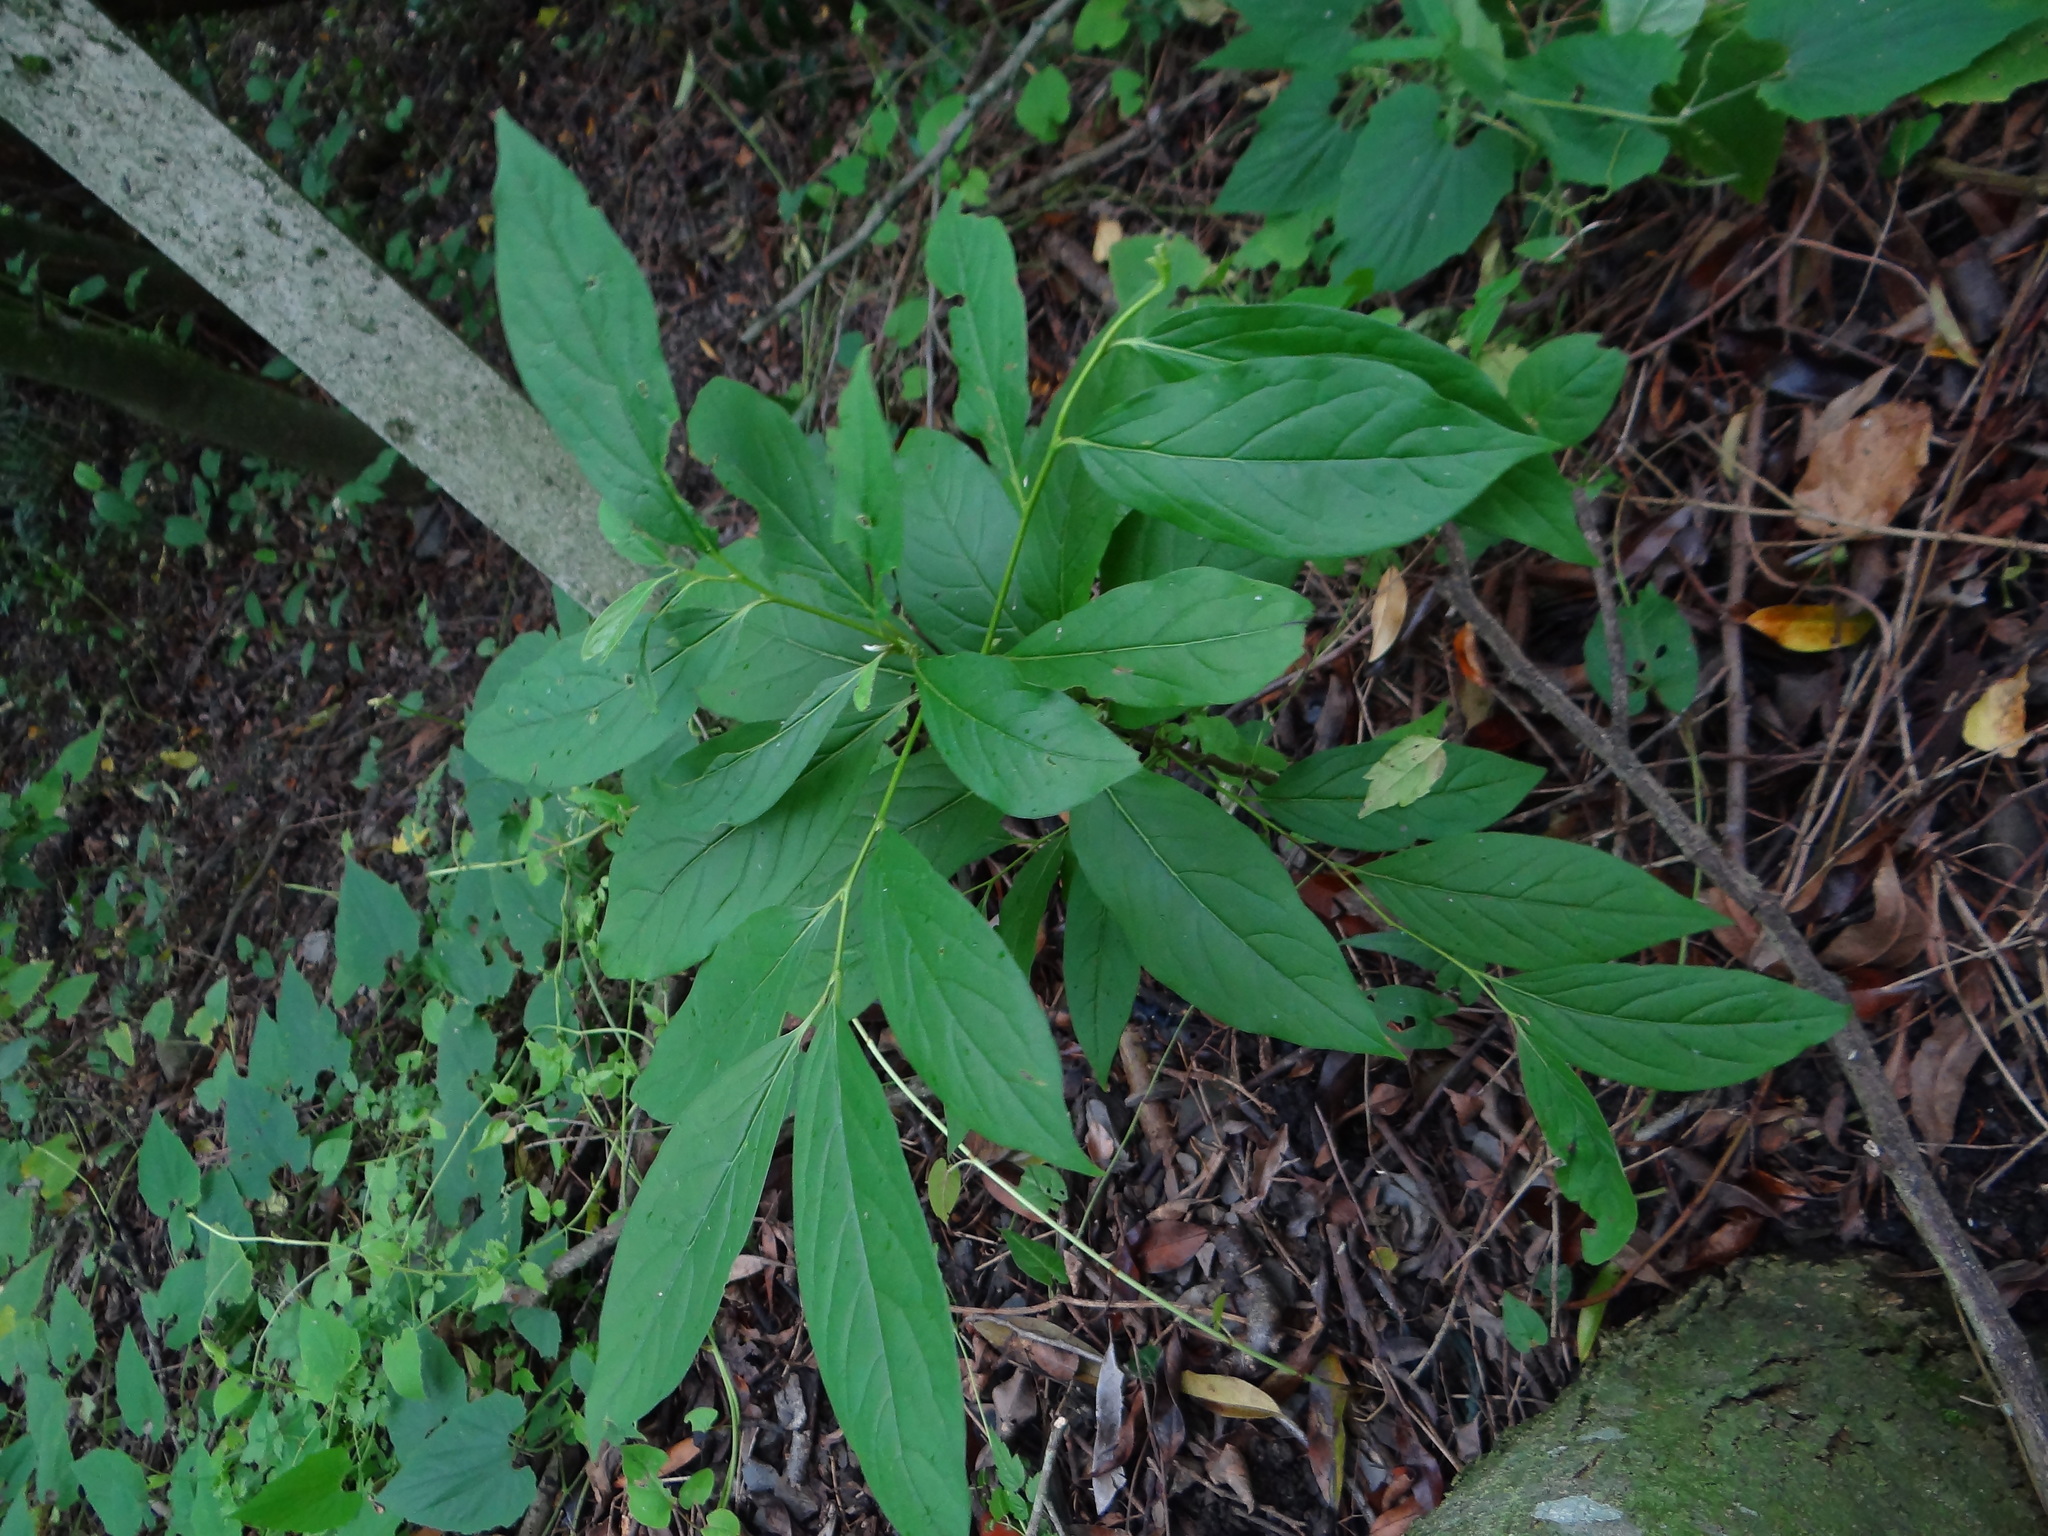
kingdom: Plantae
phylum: Tracheophyta
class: Magnoliopsida
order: Ericales
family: Ebenaceae
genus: Diospyros
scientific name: Diospyros japonica
